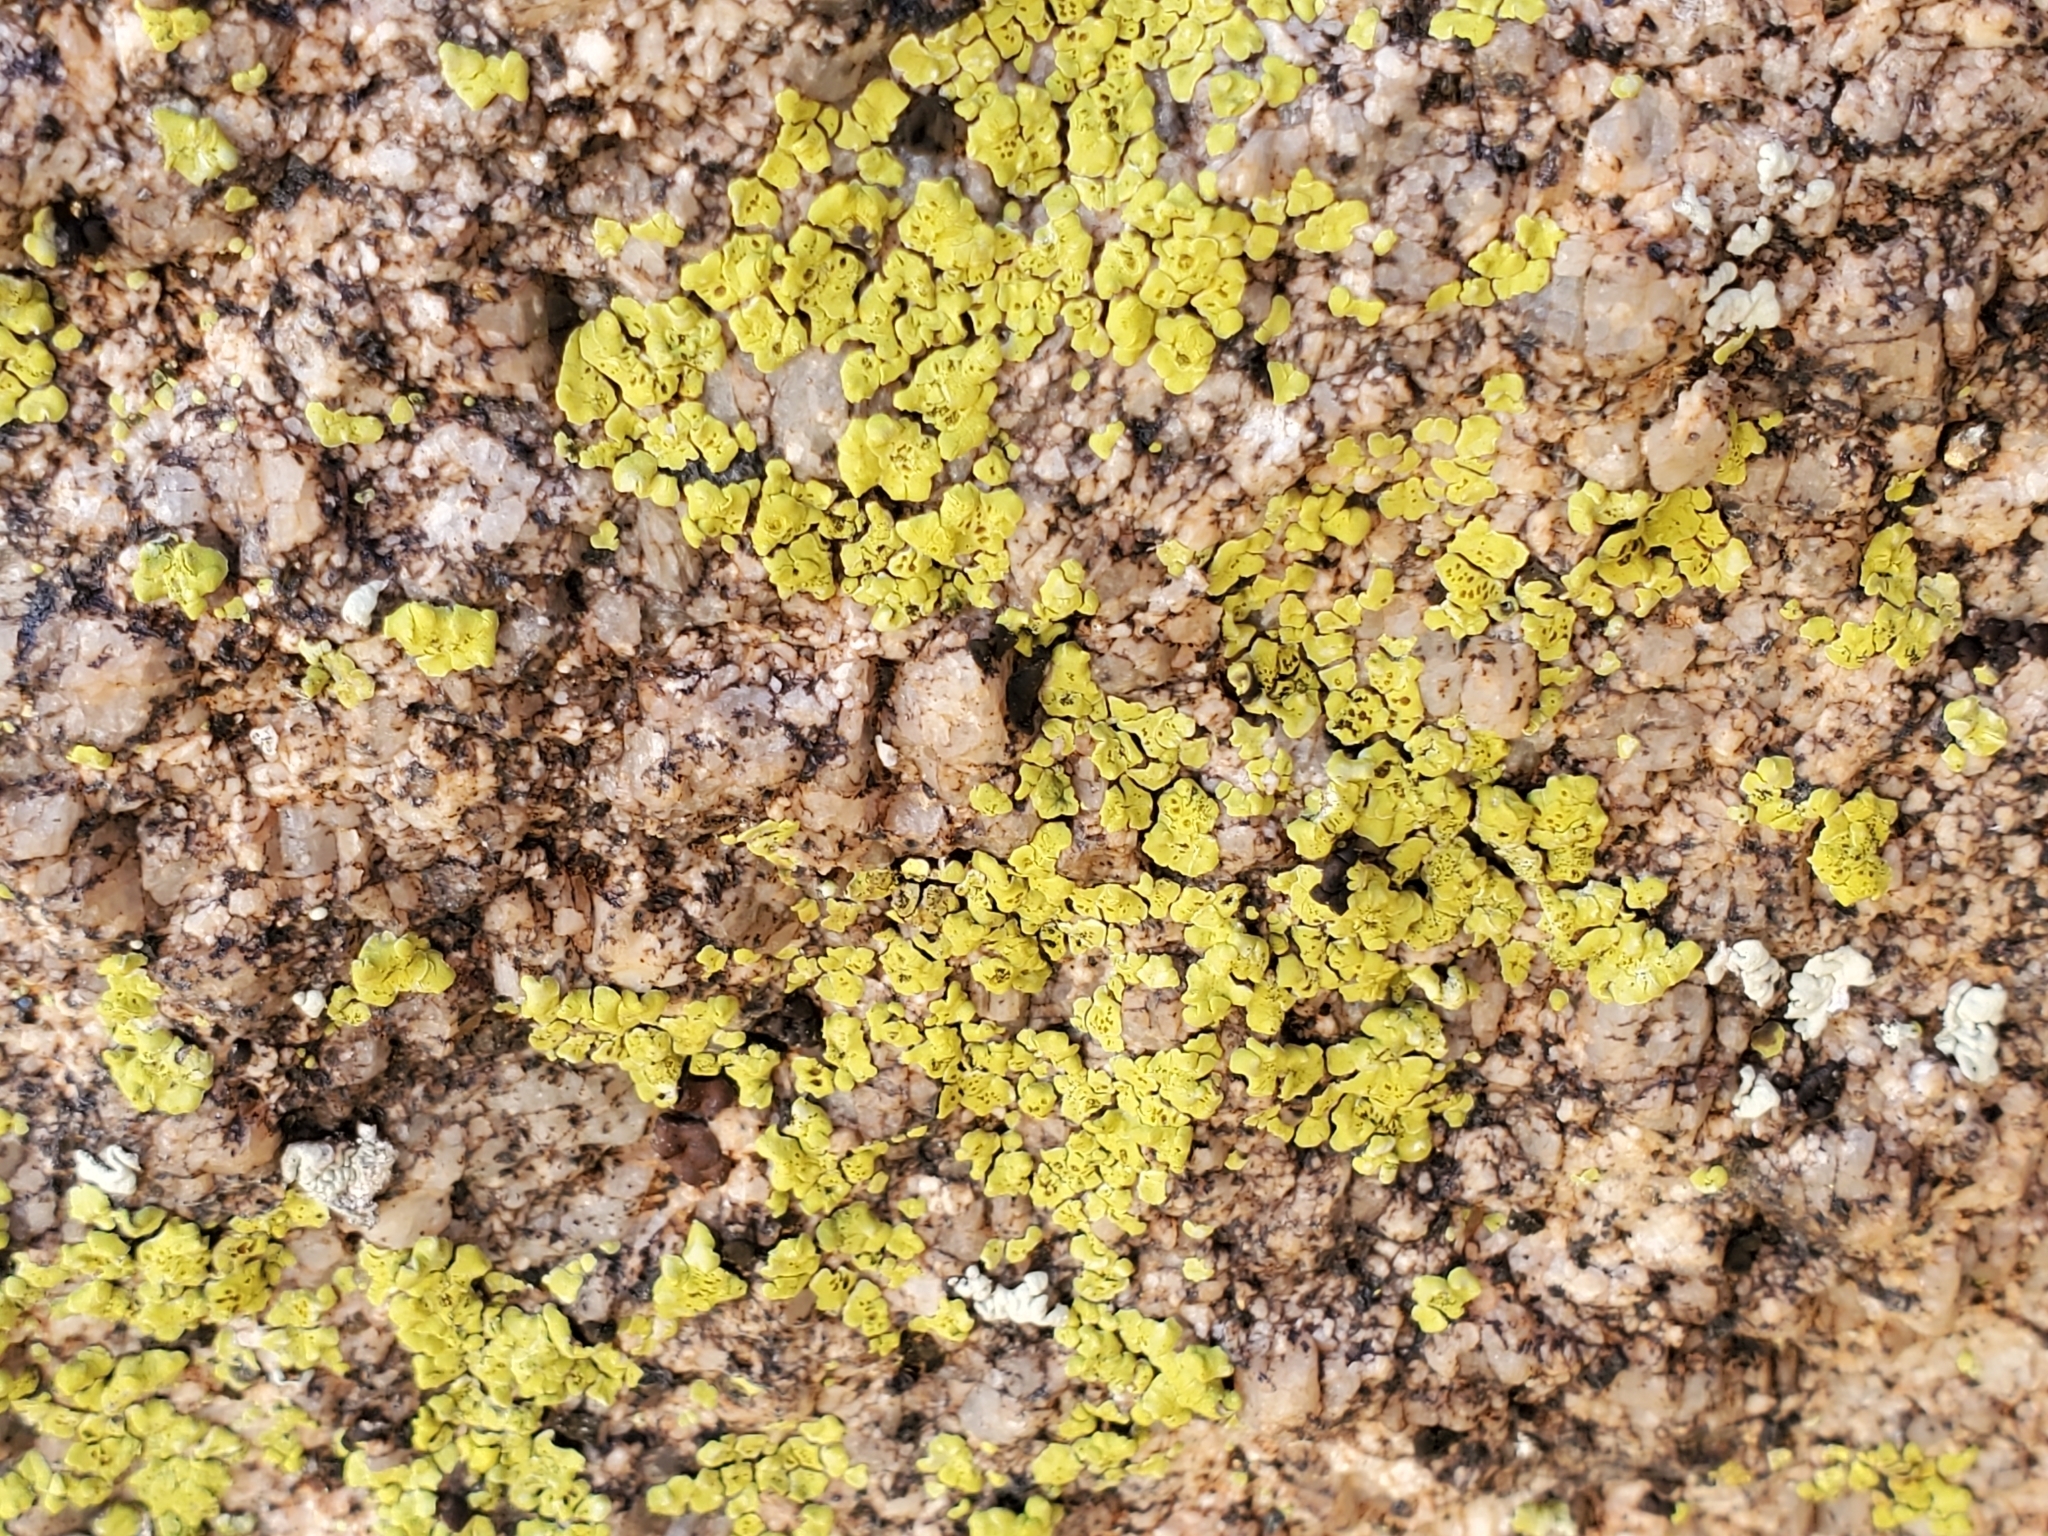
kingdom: Fungi
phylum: Ascomycota
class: Lecanoromycetes
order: Acarosporales
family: Acarosporaceae
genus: Acarospora
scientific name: Acarospora socialis
